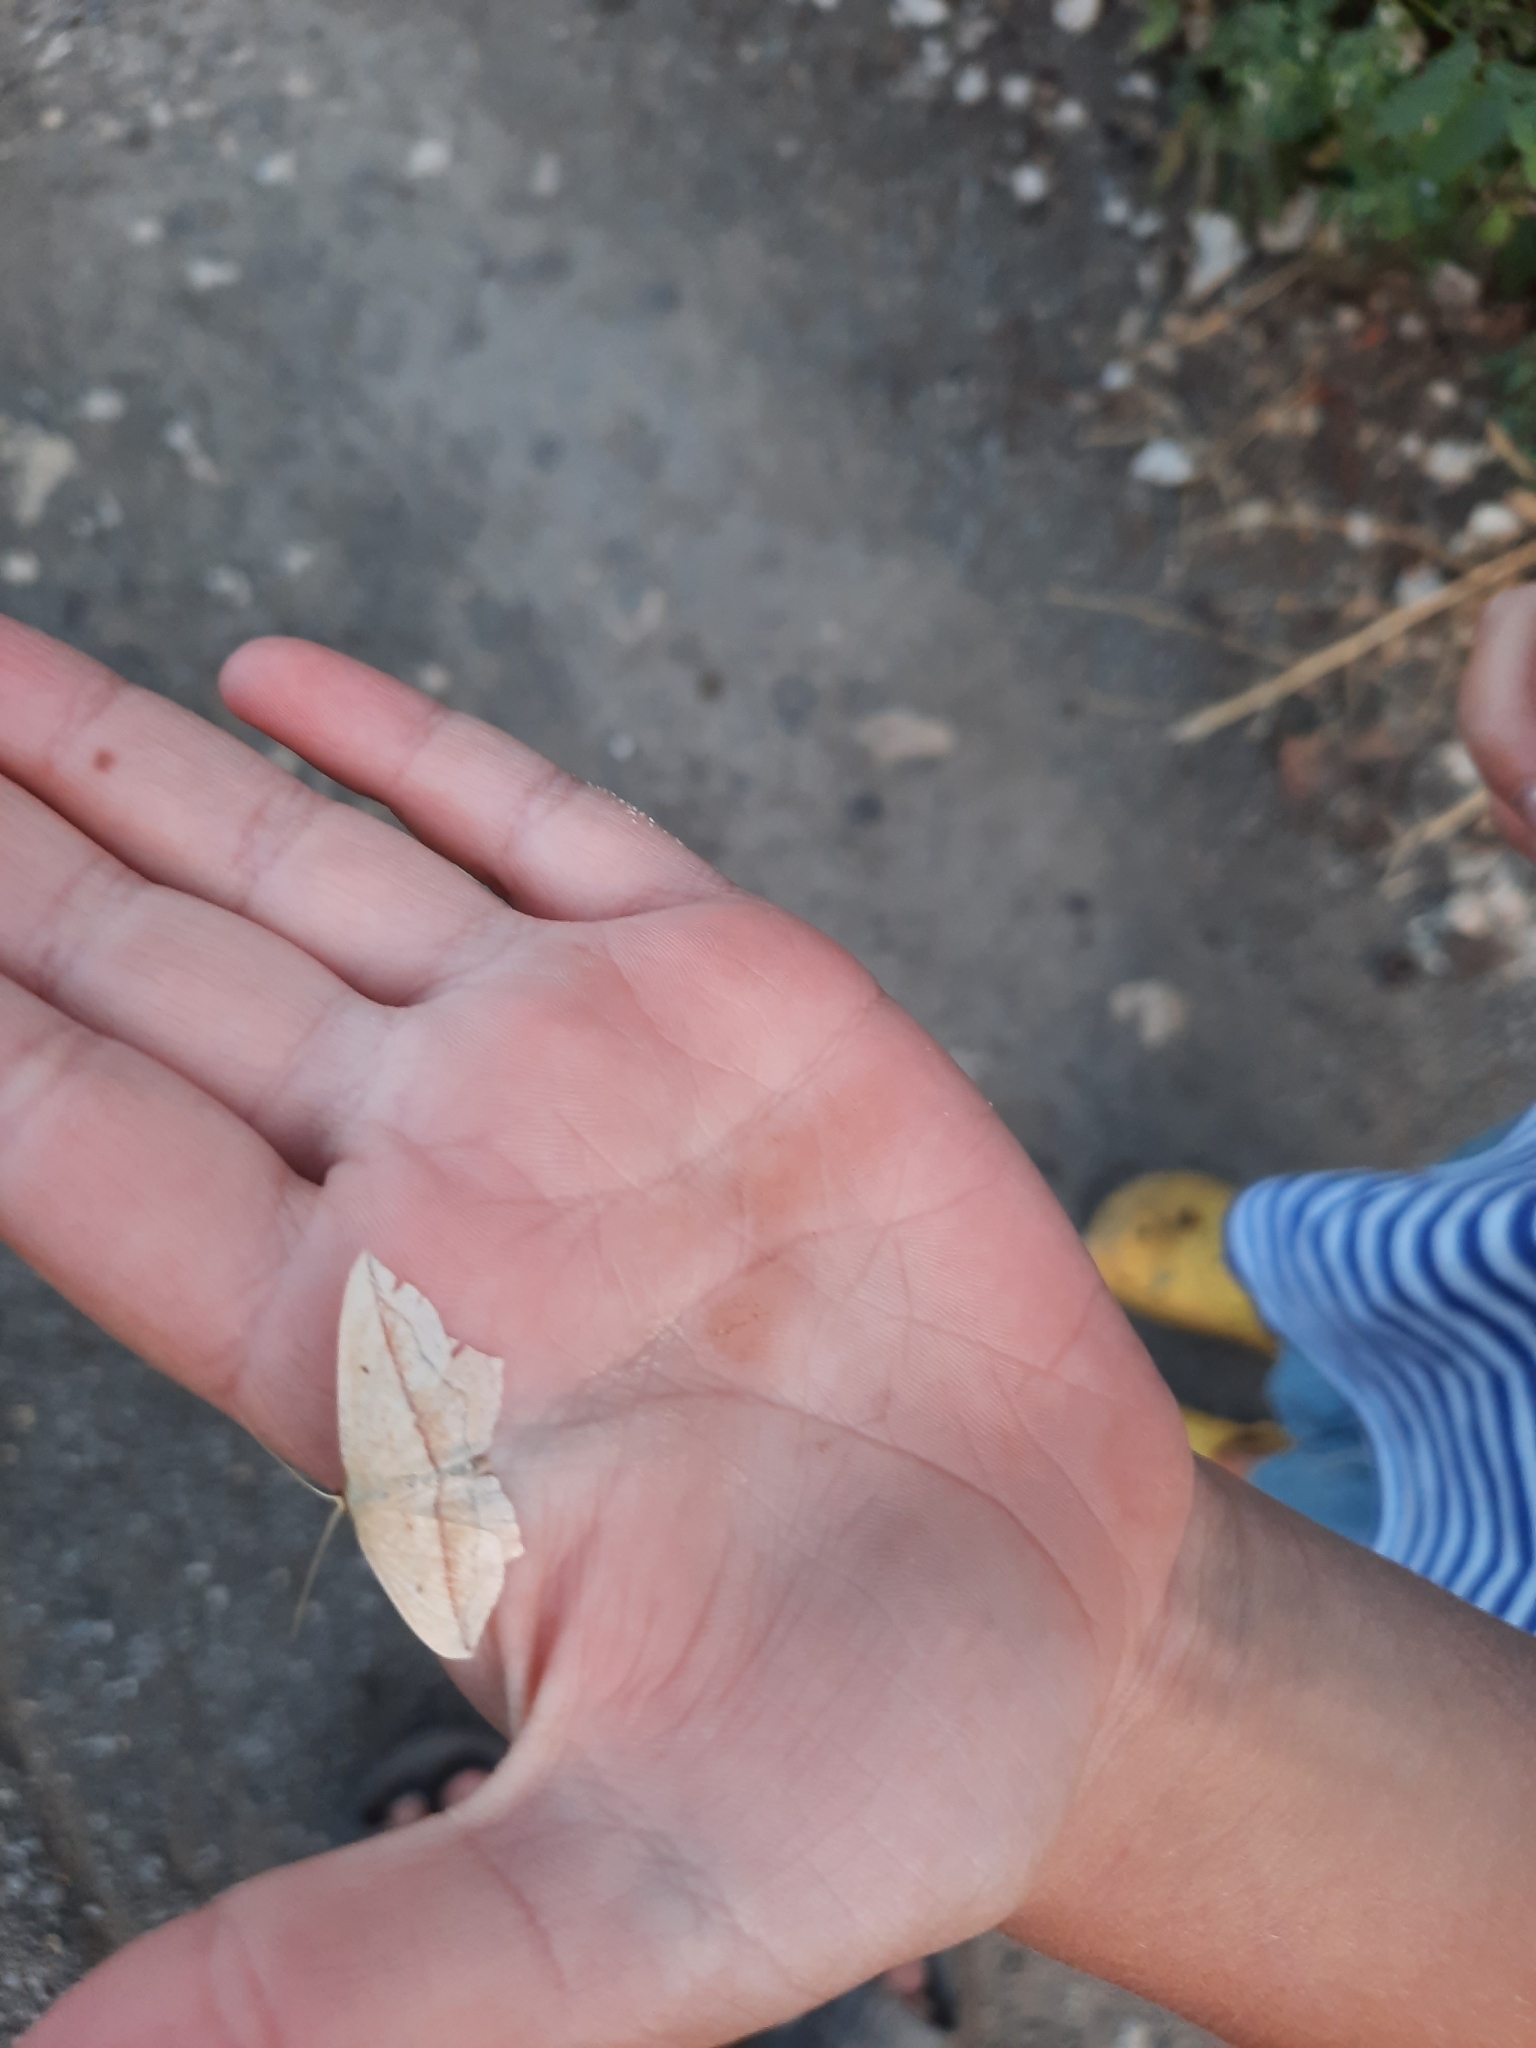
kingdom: Animalia
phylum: Arthropoda
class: Insecta
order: Lepidoptera
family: Geometridae
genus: Timandra
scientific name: Timandra comae
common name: Blood-vein
